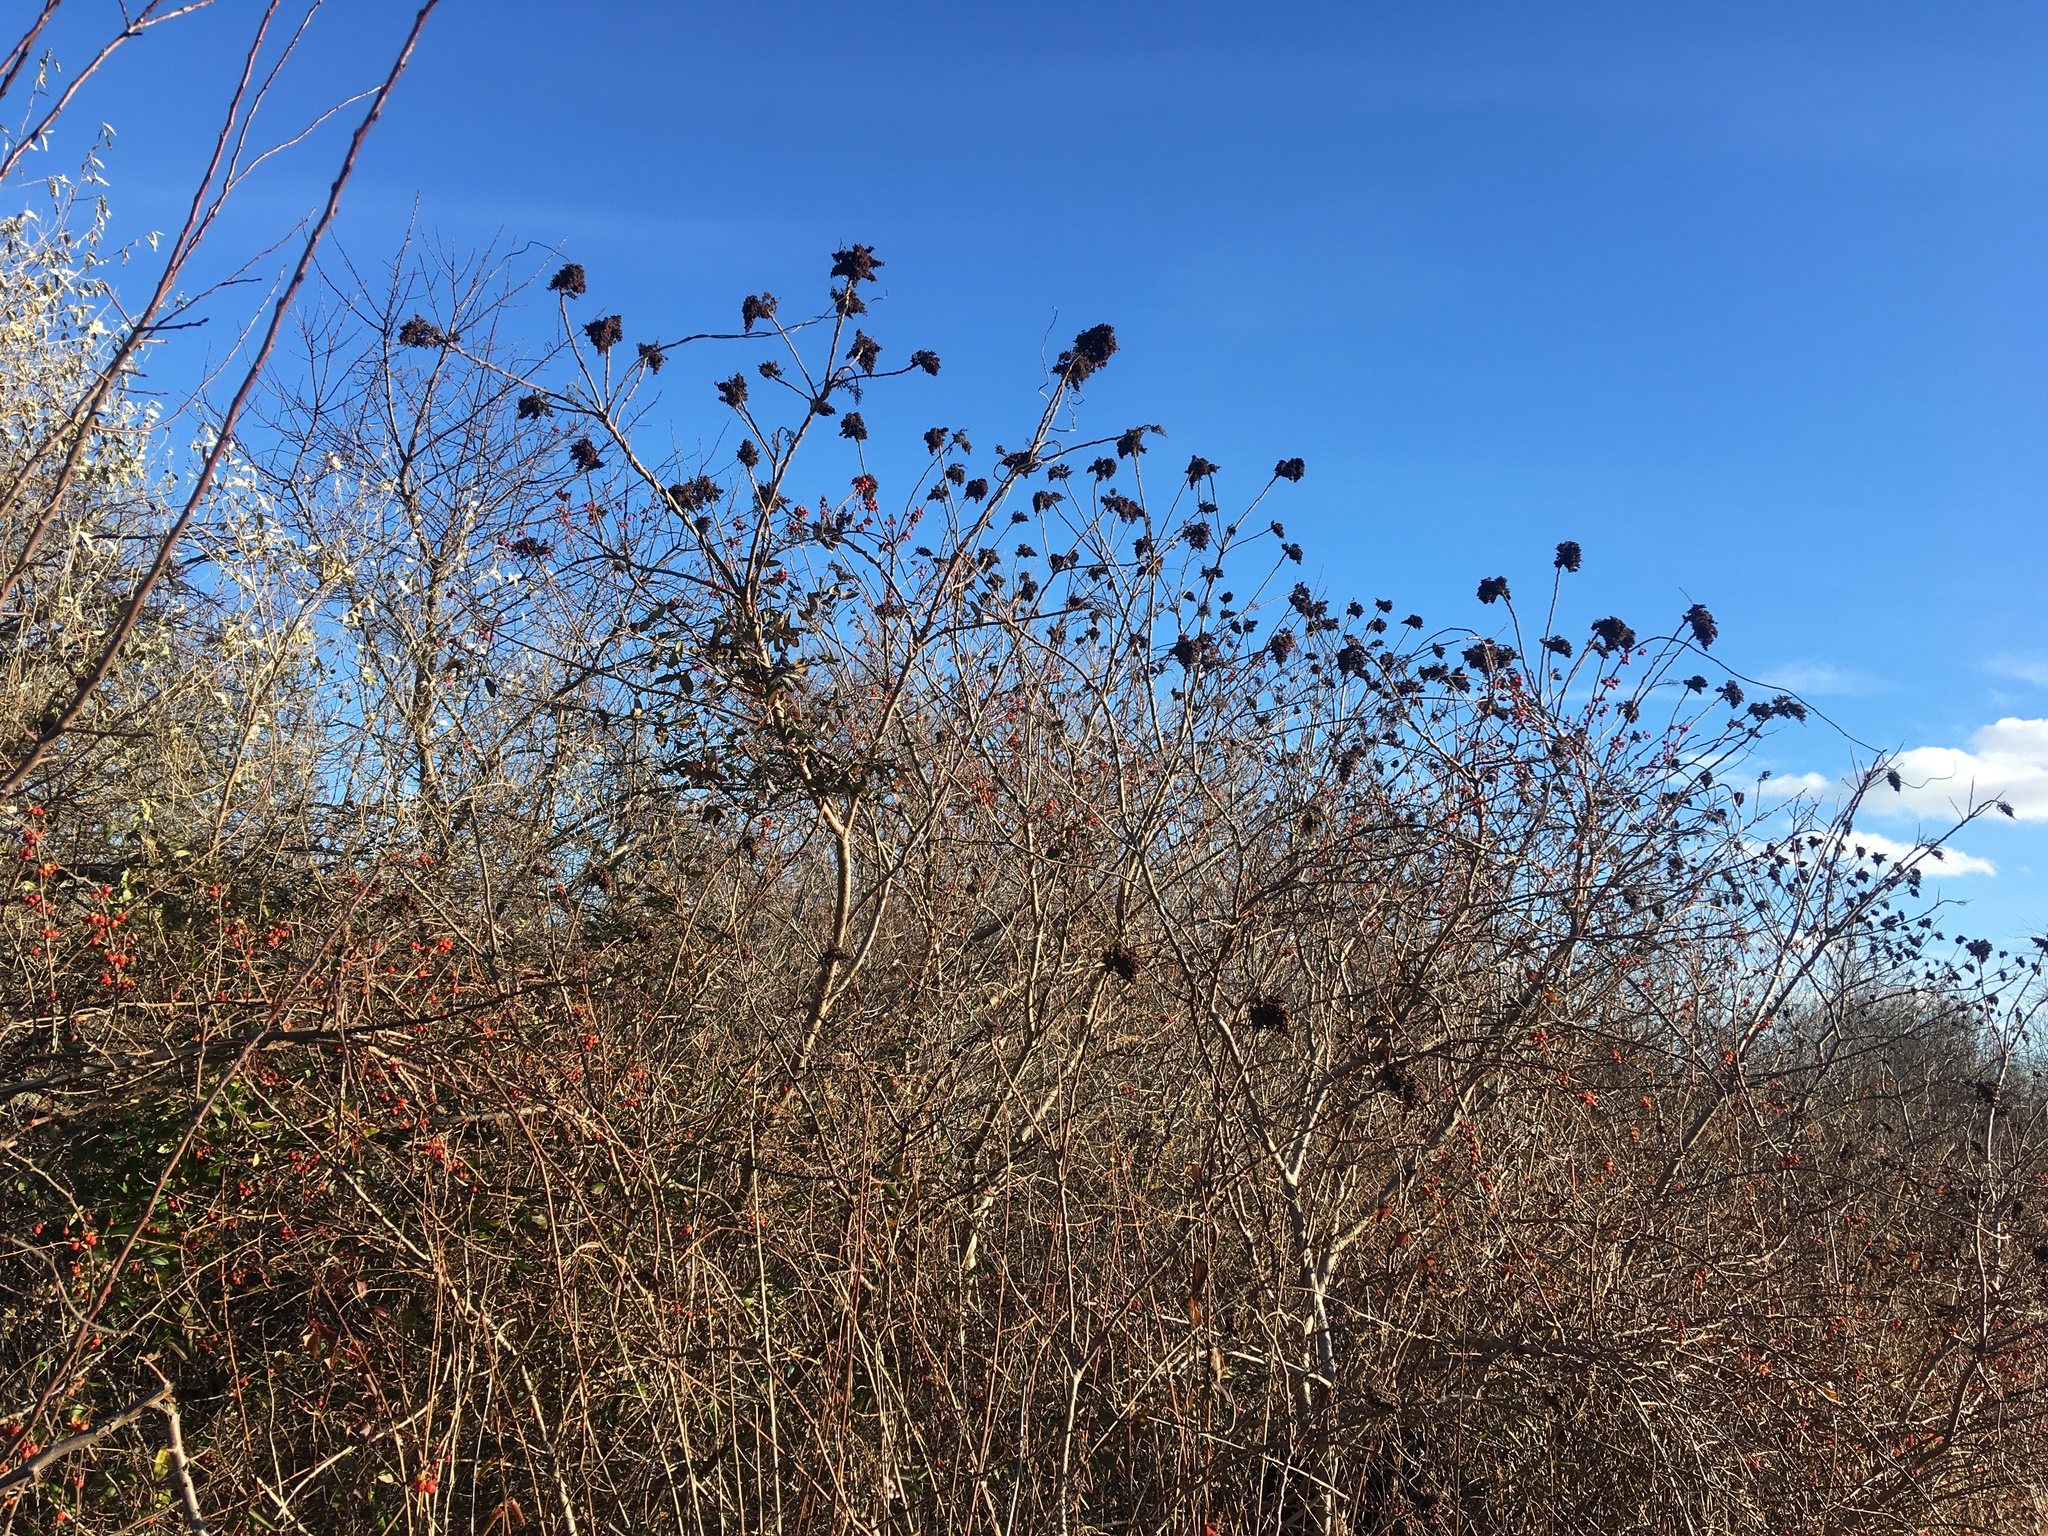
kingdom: Plantae
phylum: Tracheophyta
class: Magnoliopsida
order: Sapindales
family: Anacardiaceae
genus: Rhus
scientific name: Rhus copallina
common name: Shining sumac
